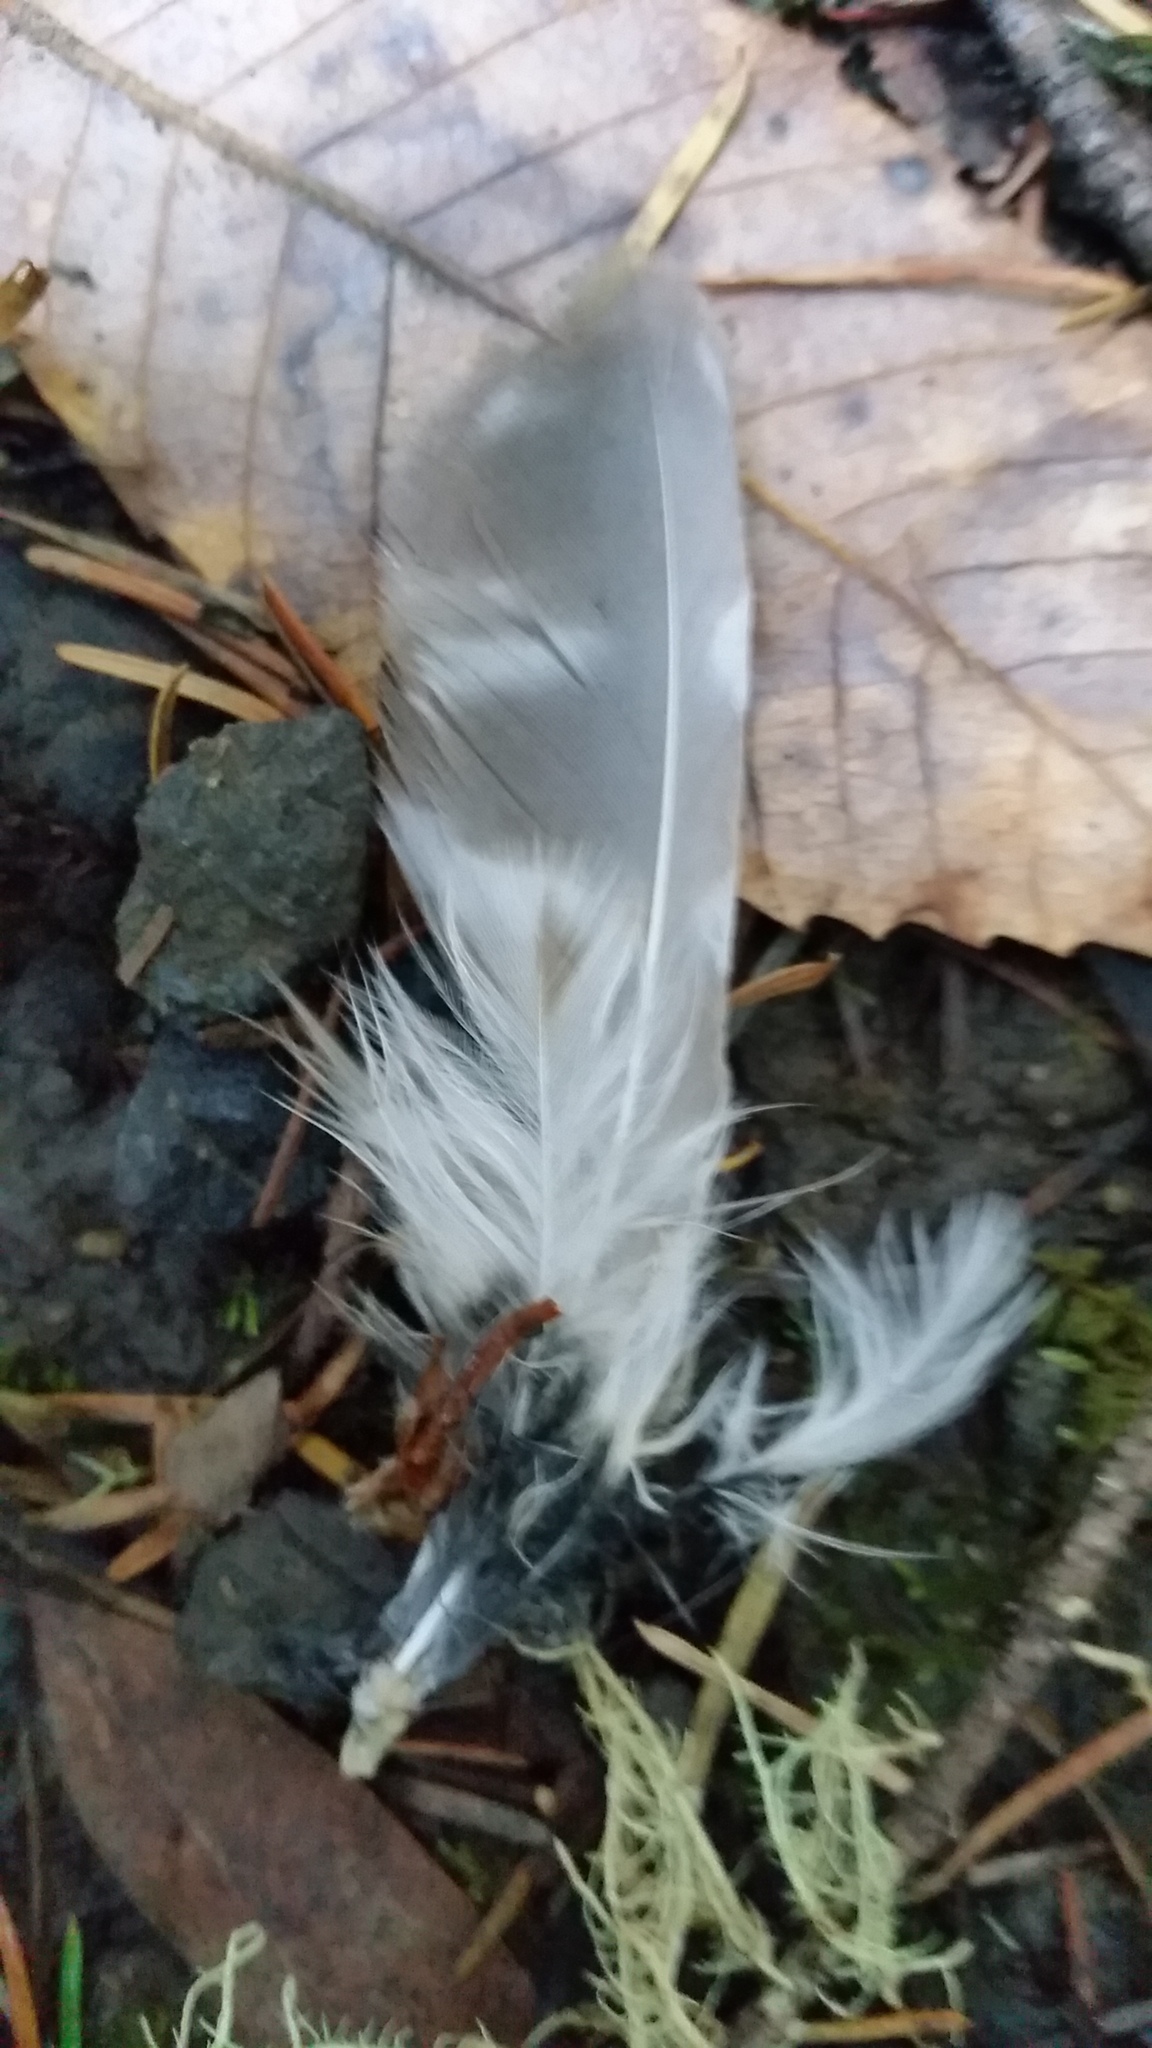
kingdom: Animalia
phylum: Chordata
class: Aves
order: Strigiformes
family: Strigidae
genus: Aegolius
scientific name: Aegolius acadicus
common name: Northern saw-whet owl
